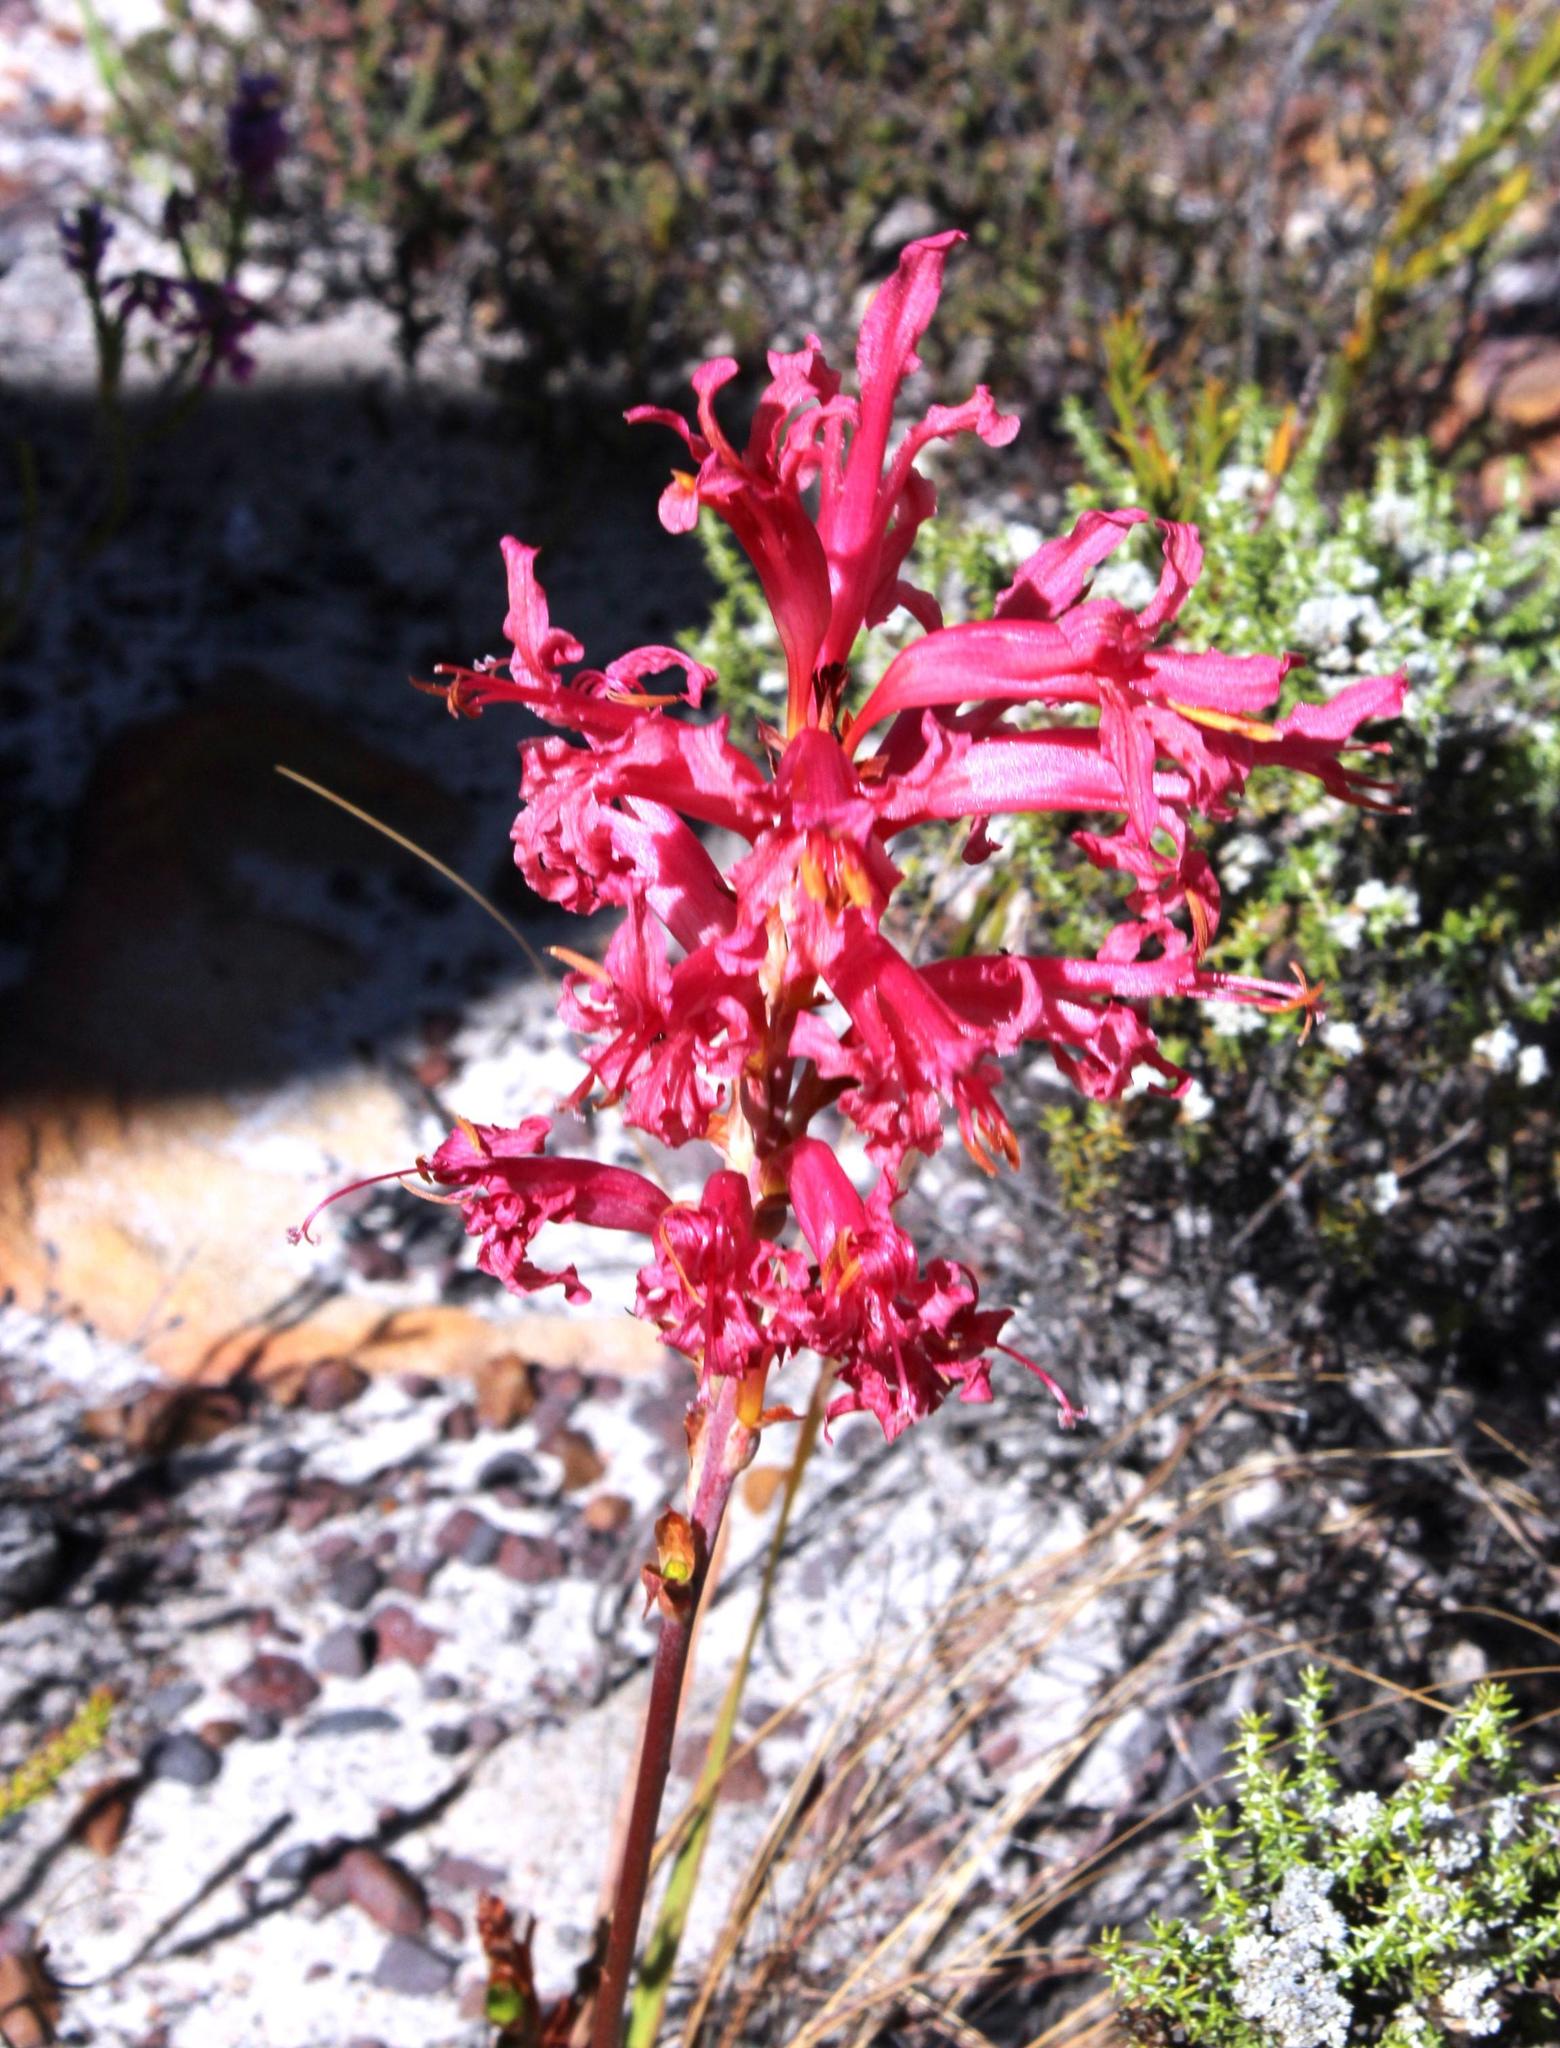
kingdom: Plantae
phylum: Tracheophyta
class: Liliopsida
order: Asparagales
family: Iridaceae
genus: Tritoniopsis
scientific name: Tritoniopsis antholyza
